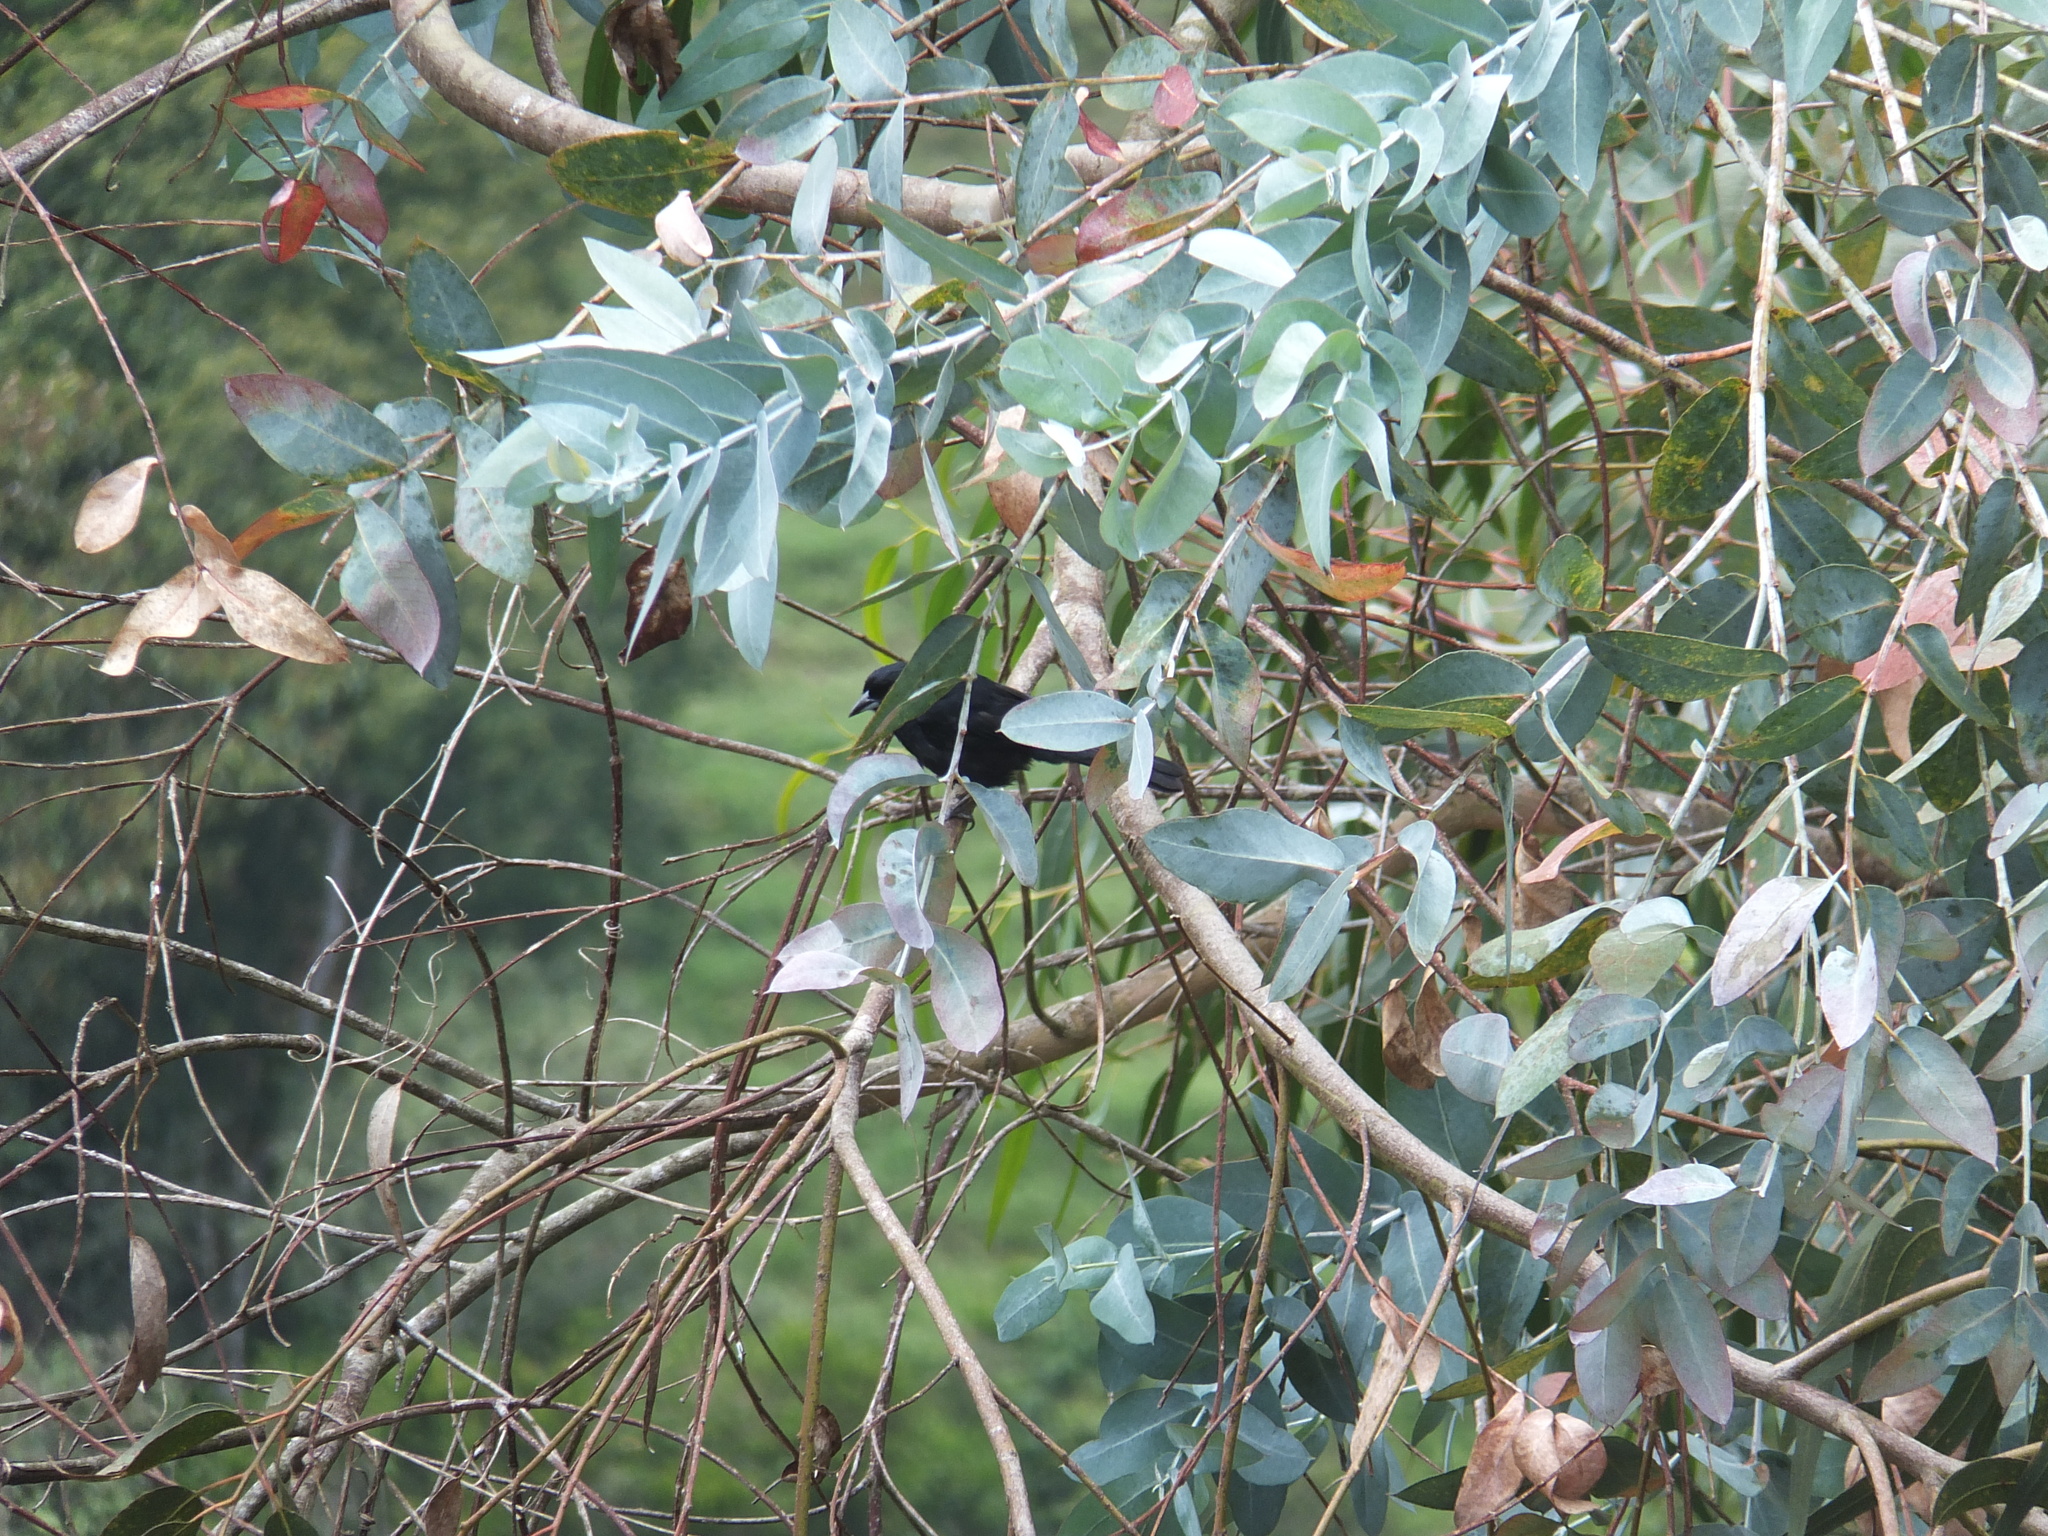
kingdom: Animalia
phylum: Chordata
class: Aves
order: Passeriformes
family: Thraupidae
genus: Tachyphonus
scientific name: Tachyphonus rufus
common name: White-lined tanager
